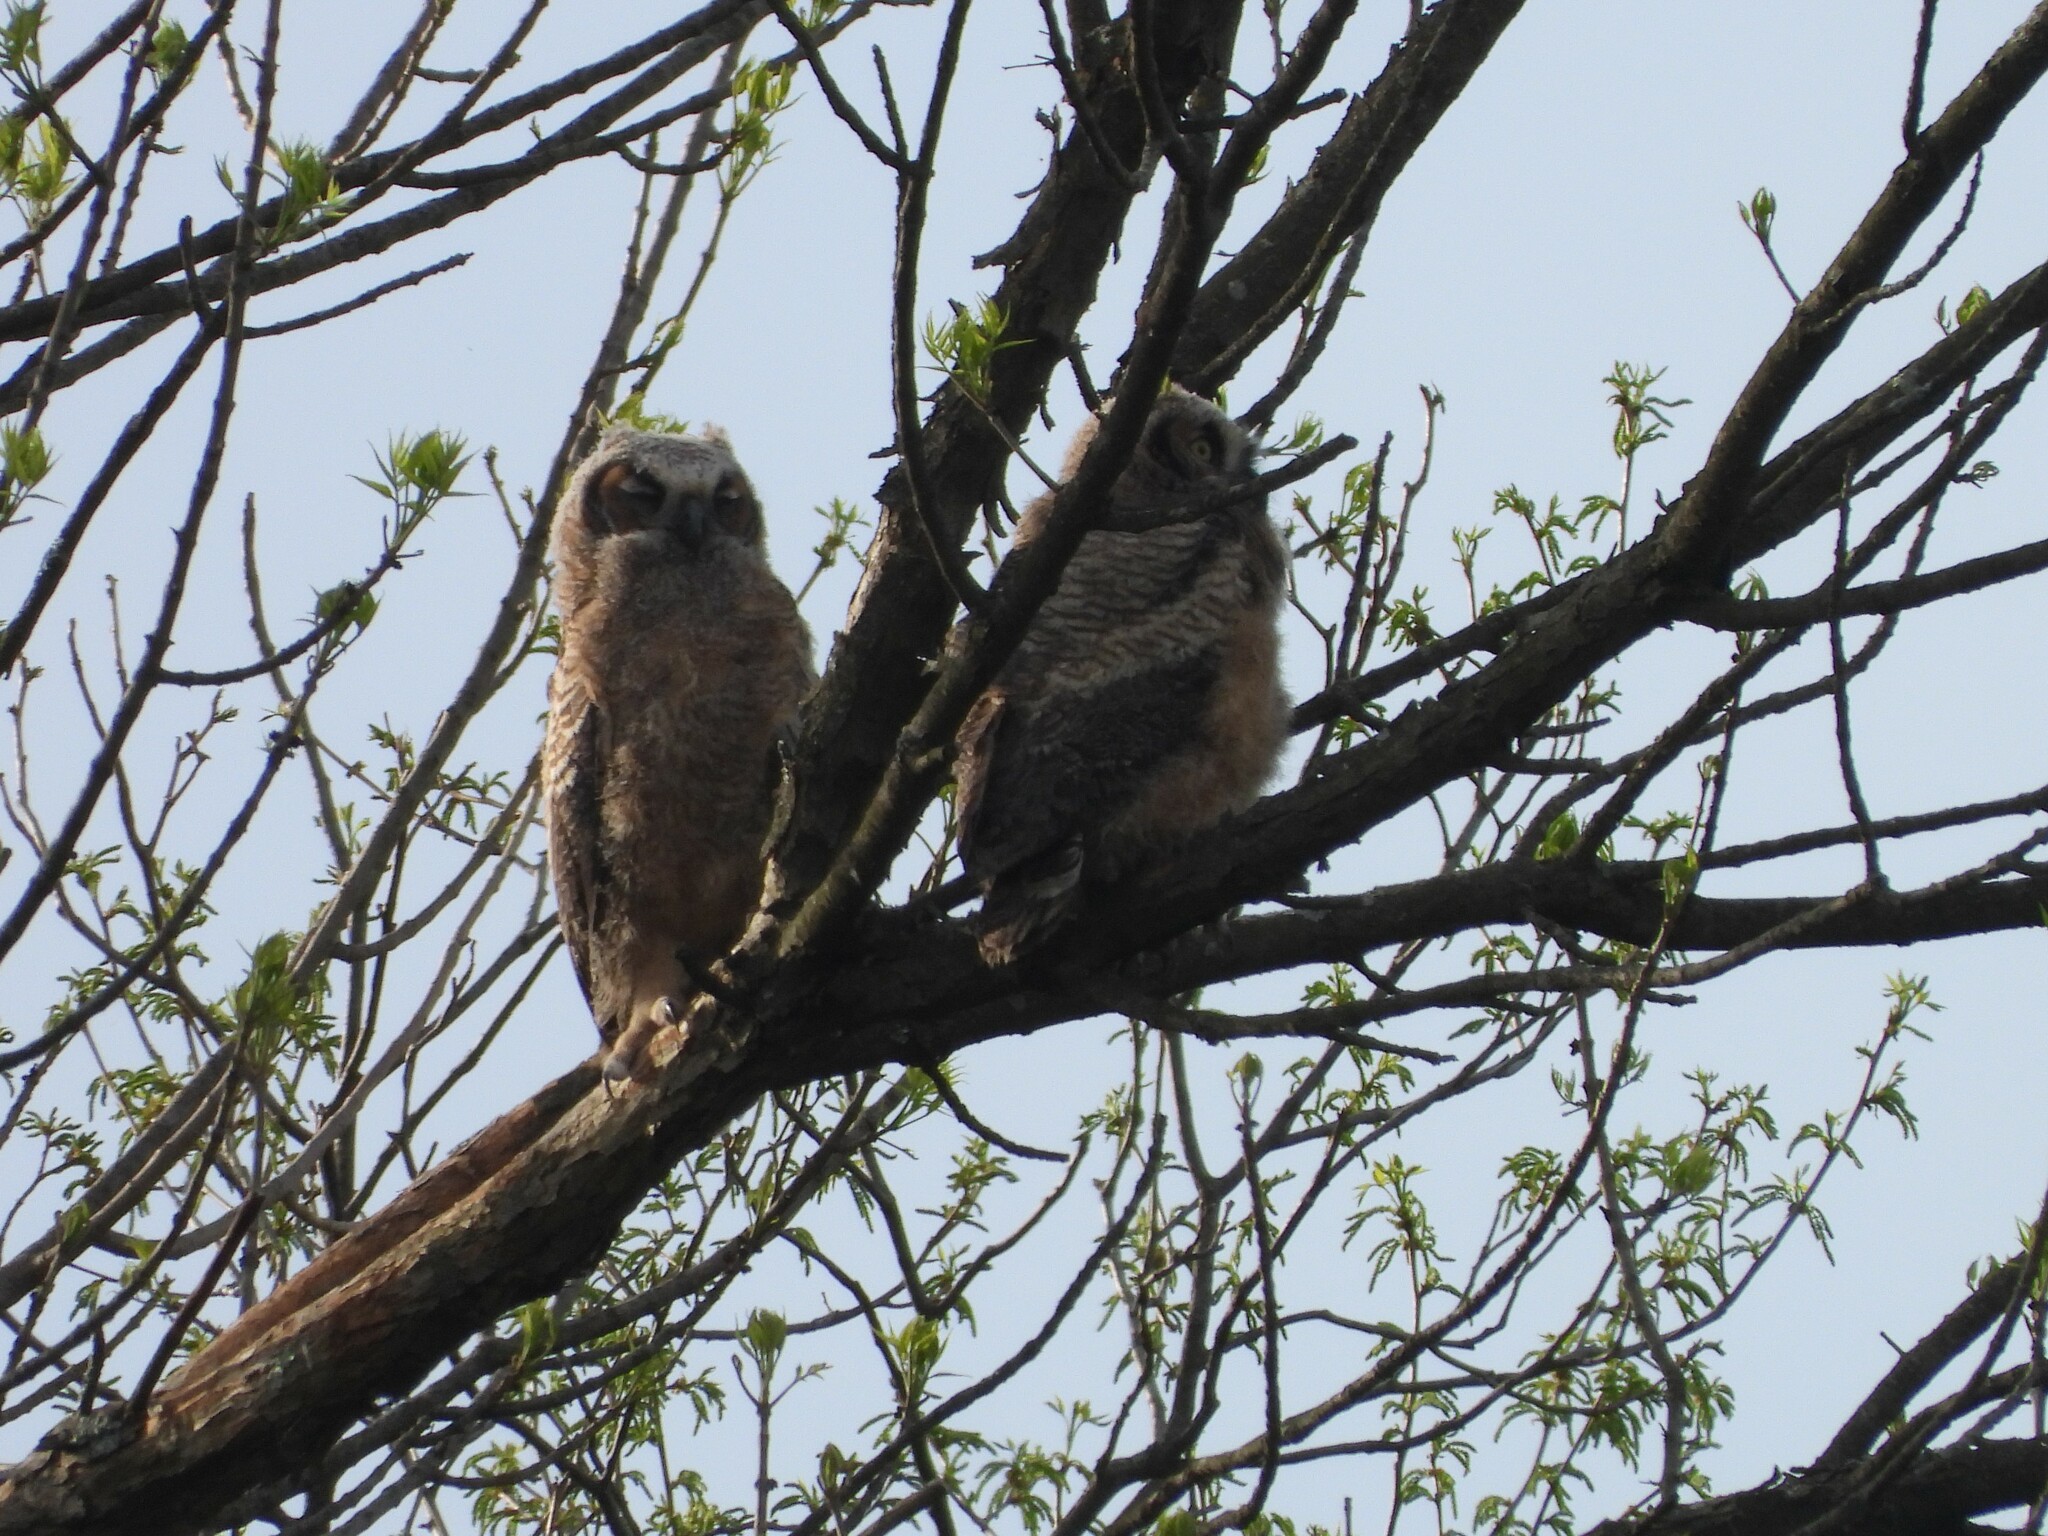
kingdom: Animalia
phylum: Chordata
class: Aves
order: Strigiformes
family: Strigidae
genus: Bubo
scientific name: Bubo virginianus
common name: Great horned owl
